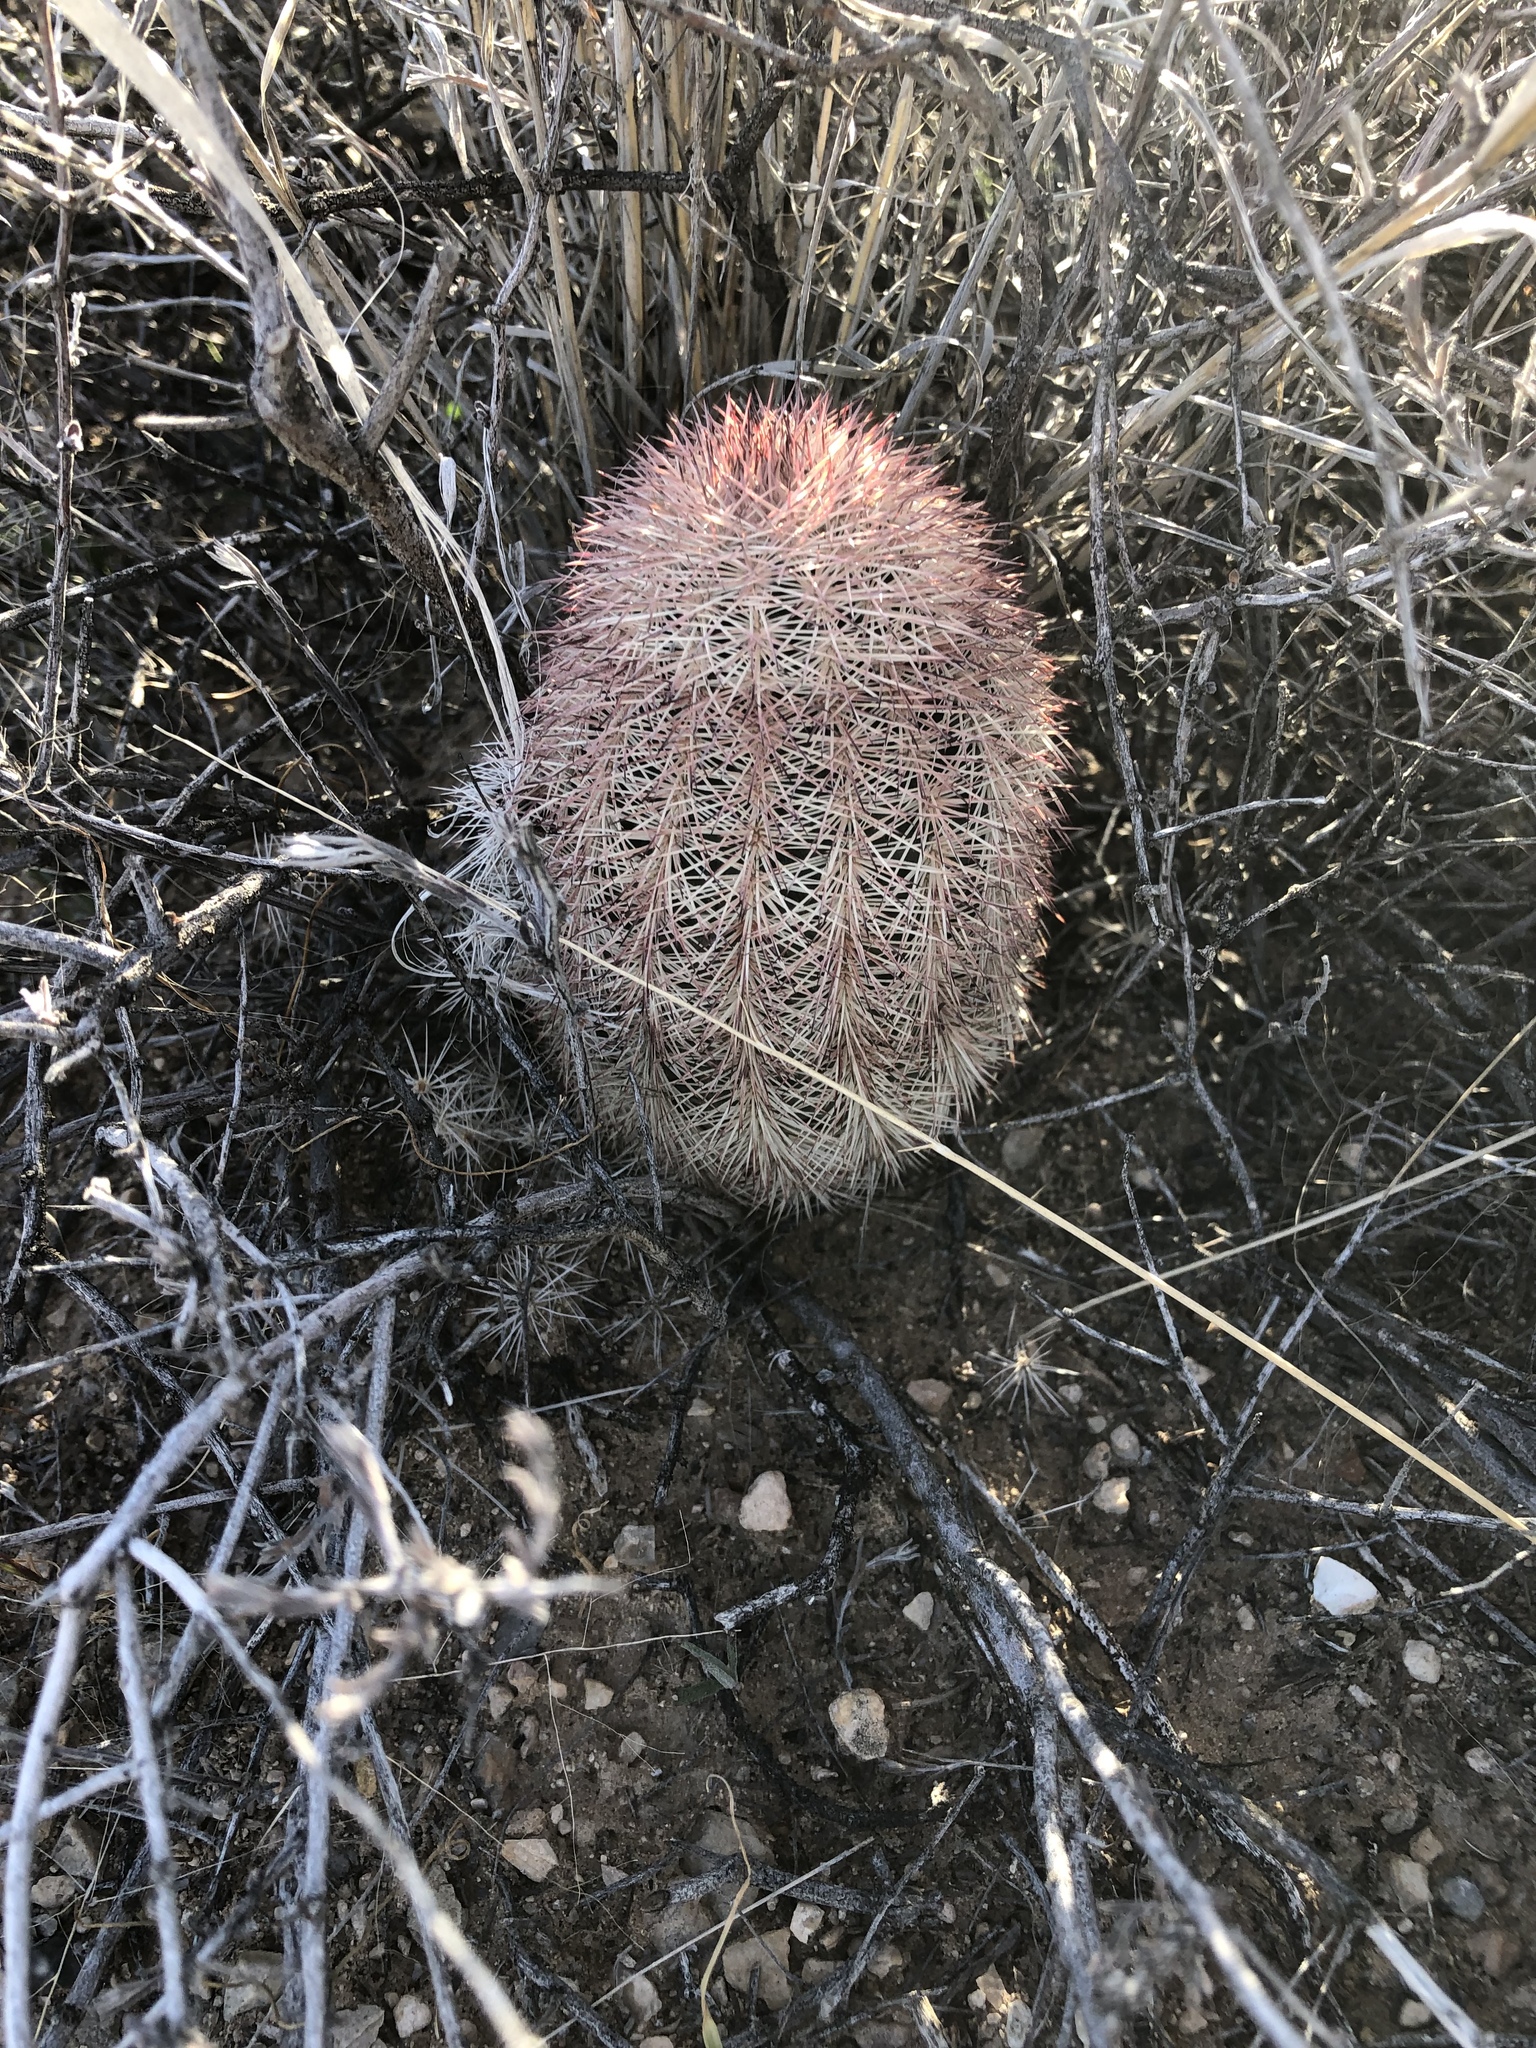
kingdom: Plantae
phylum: Tracheophyta
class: Magnoliopsida
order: Caryophyllales
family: Cactaceae
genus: Echinocereus
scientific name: Echinocereus dasyacanthus
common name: Spiny hedgehog cactus
